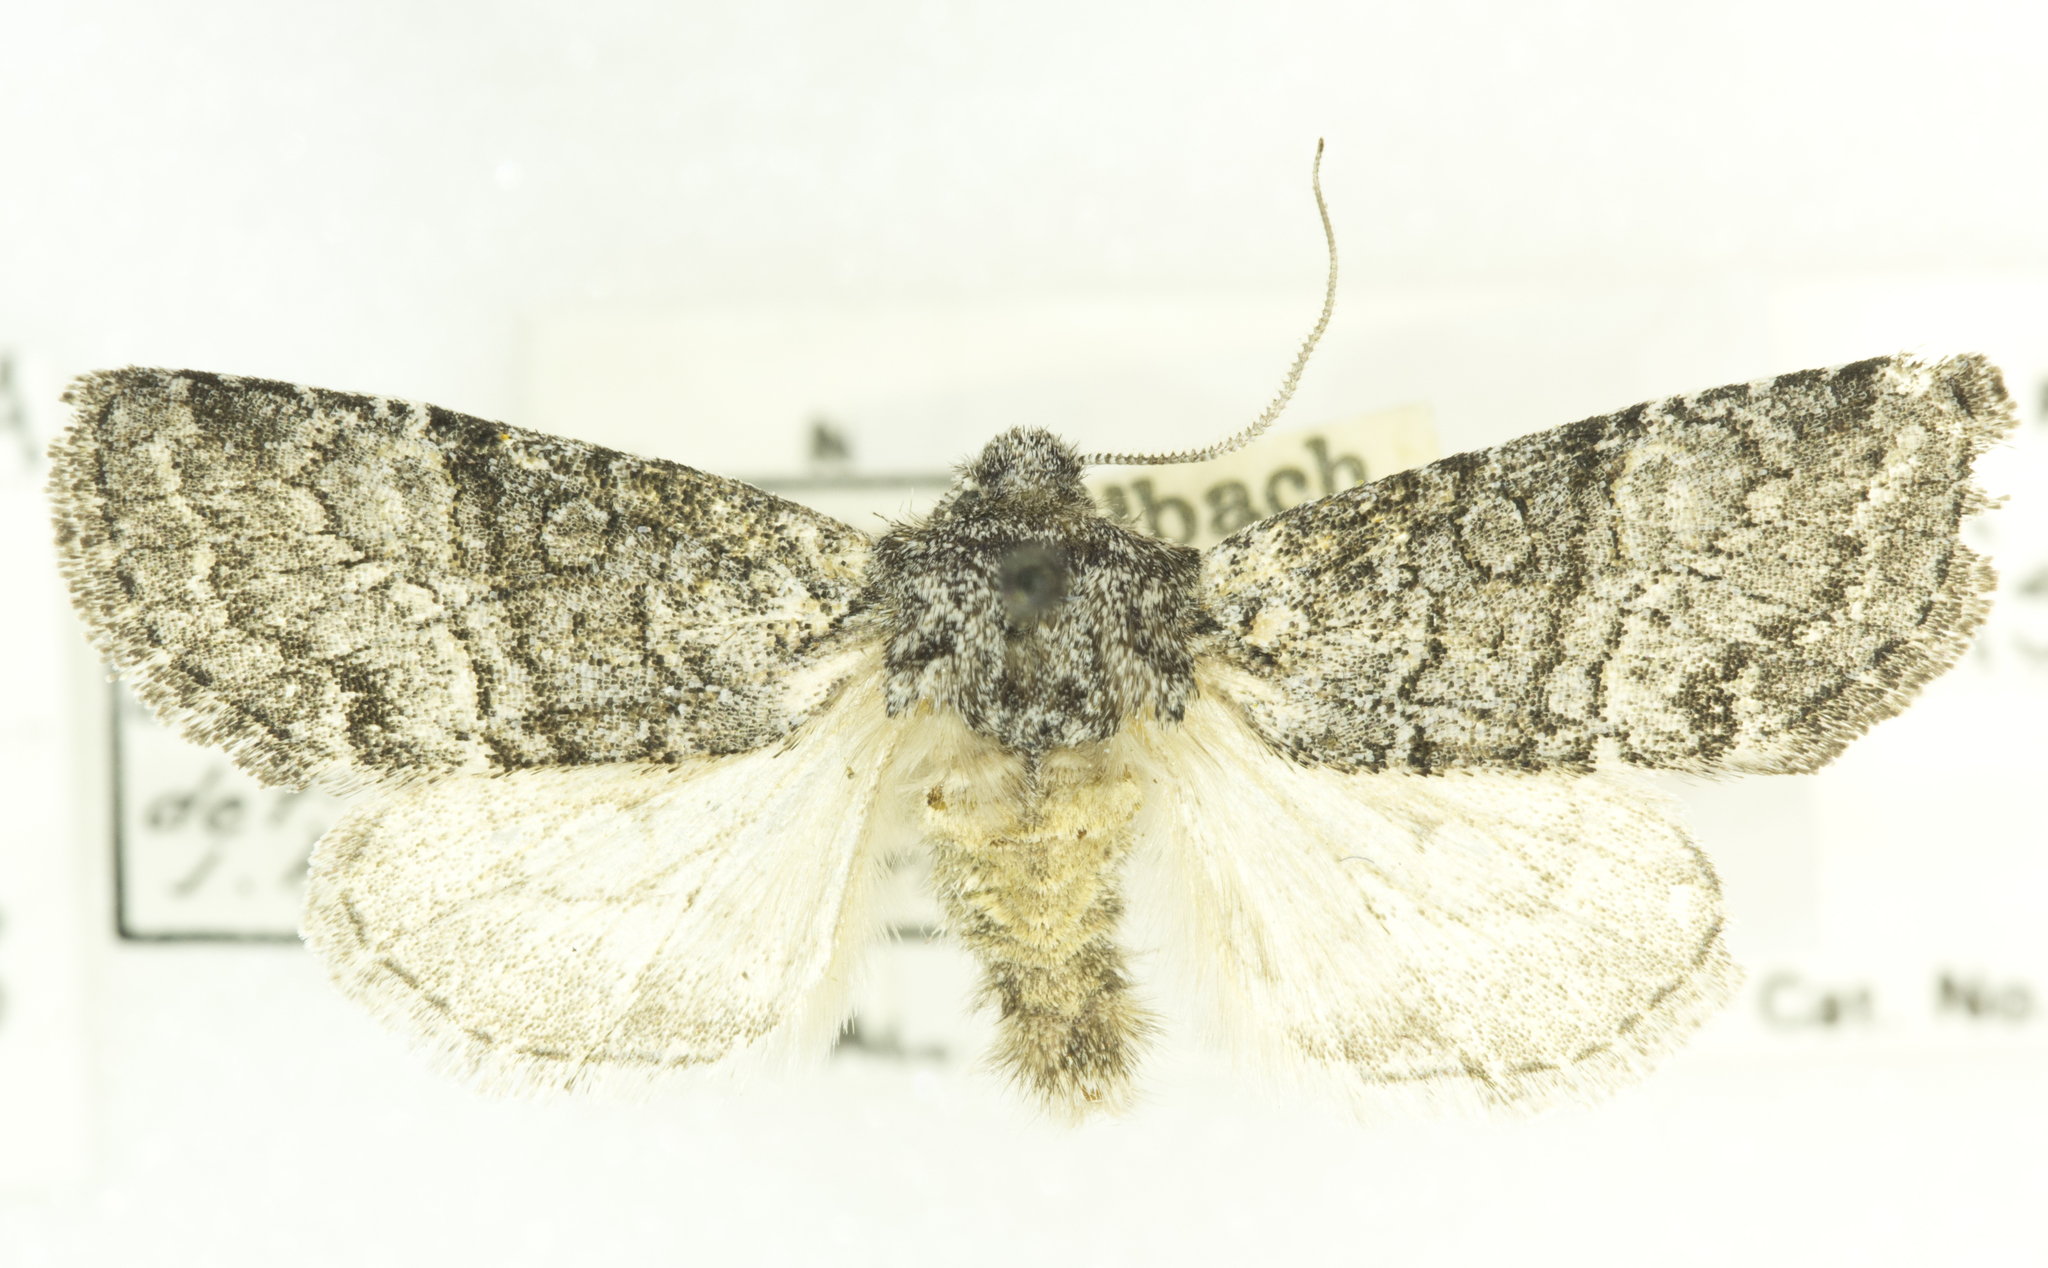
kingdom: Animalia
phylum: Arthropoda
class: Insecta
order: Lepidoptera
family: Noctuidae
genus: Brachylomia
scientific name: Brachylomia discolor
